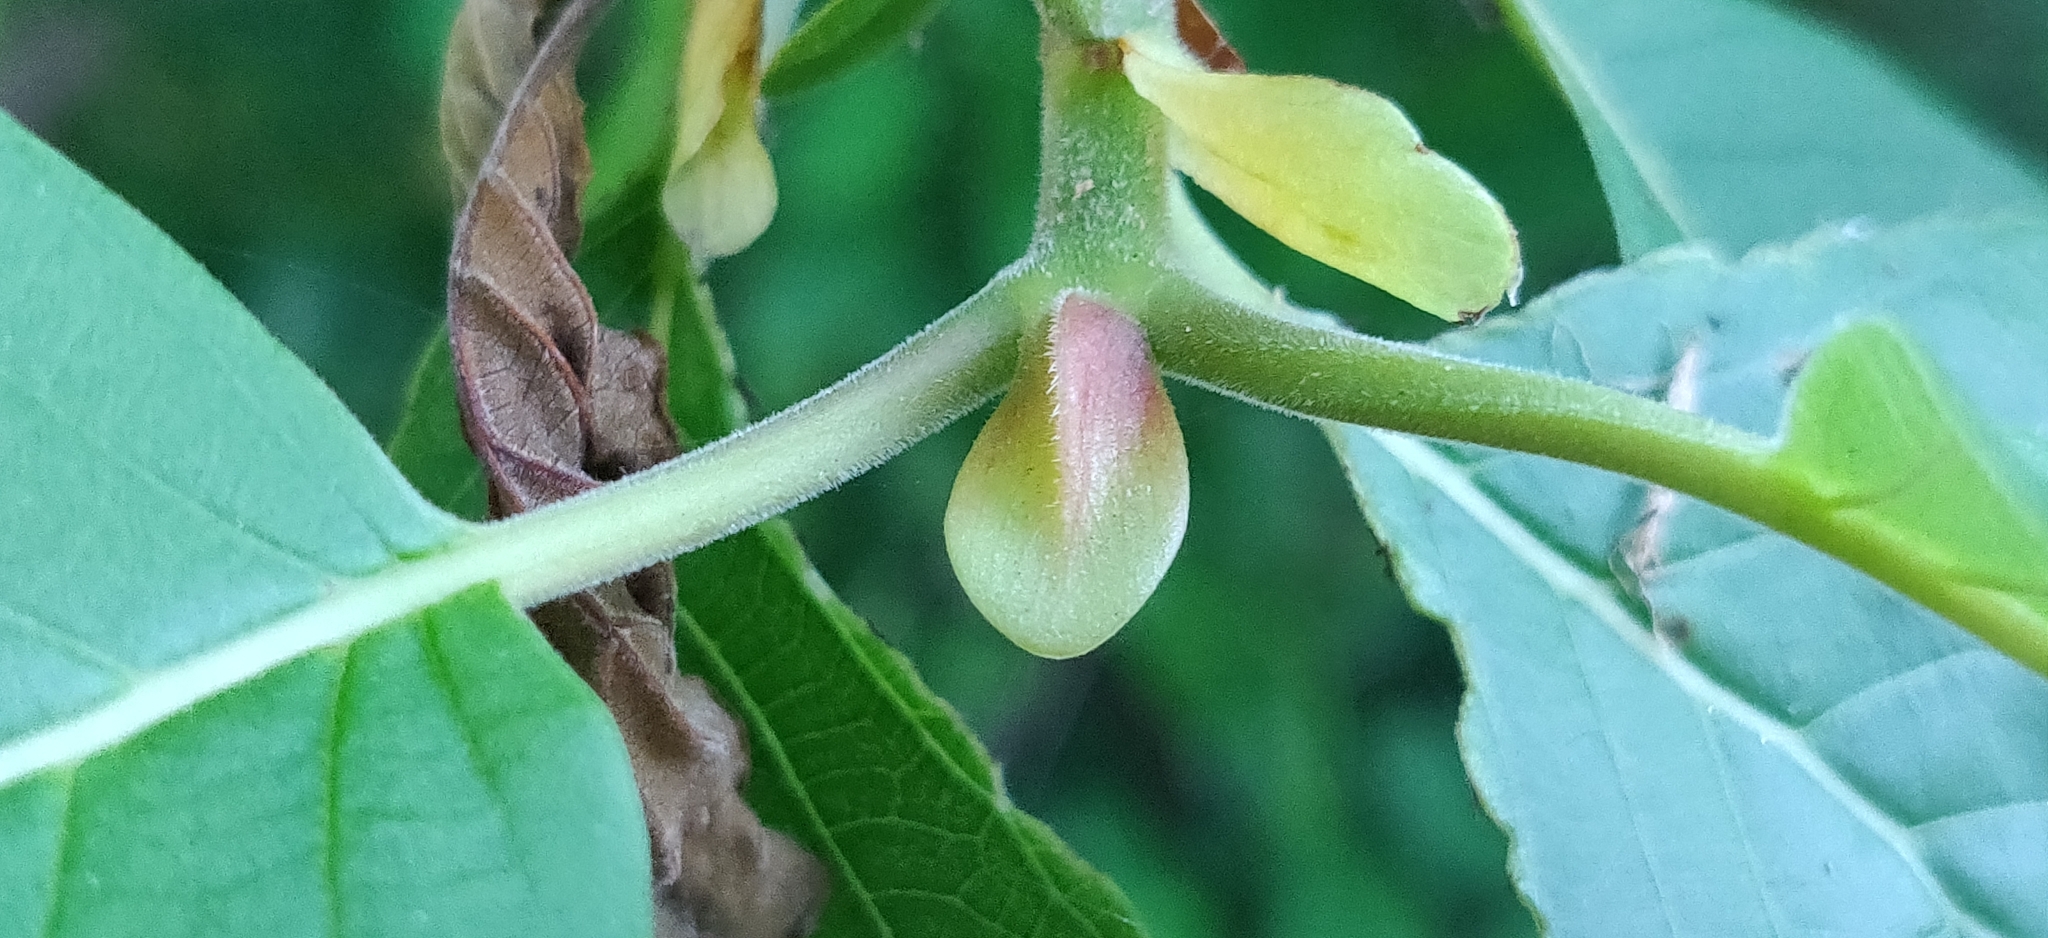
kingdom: Plantae
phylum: Tracheophyta
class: Magnoliopsida
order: Gentianales
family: Rubiaceae
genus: Mitragyna
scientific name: Mitragyna parvifolia
